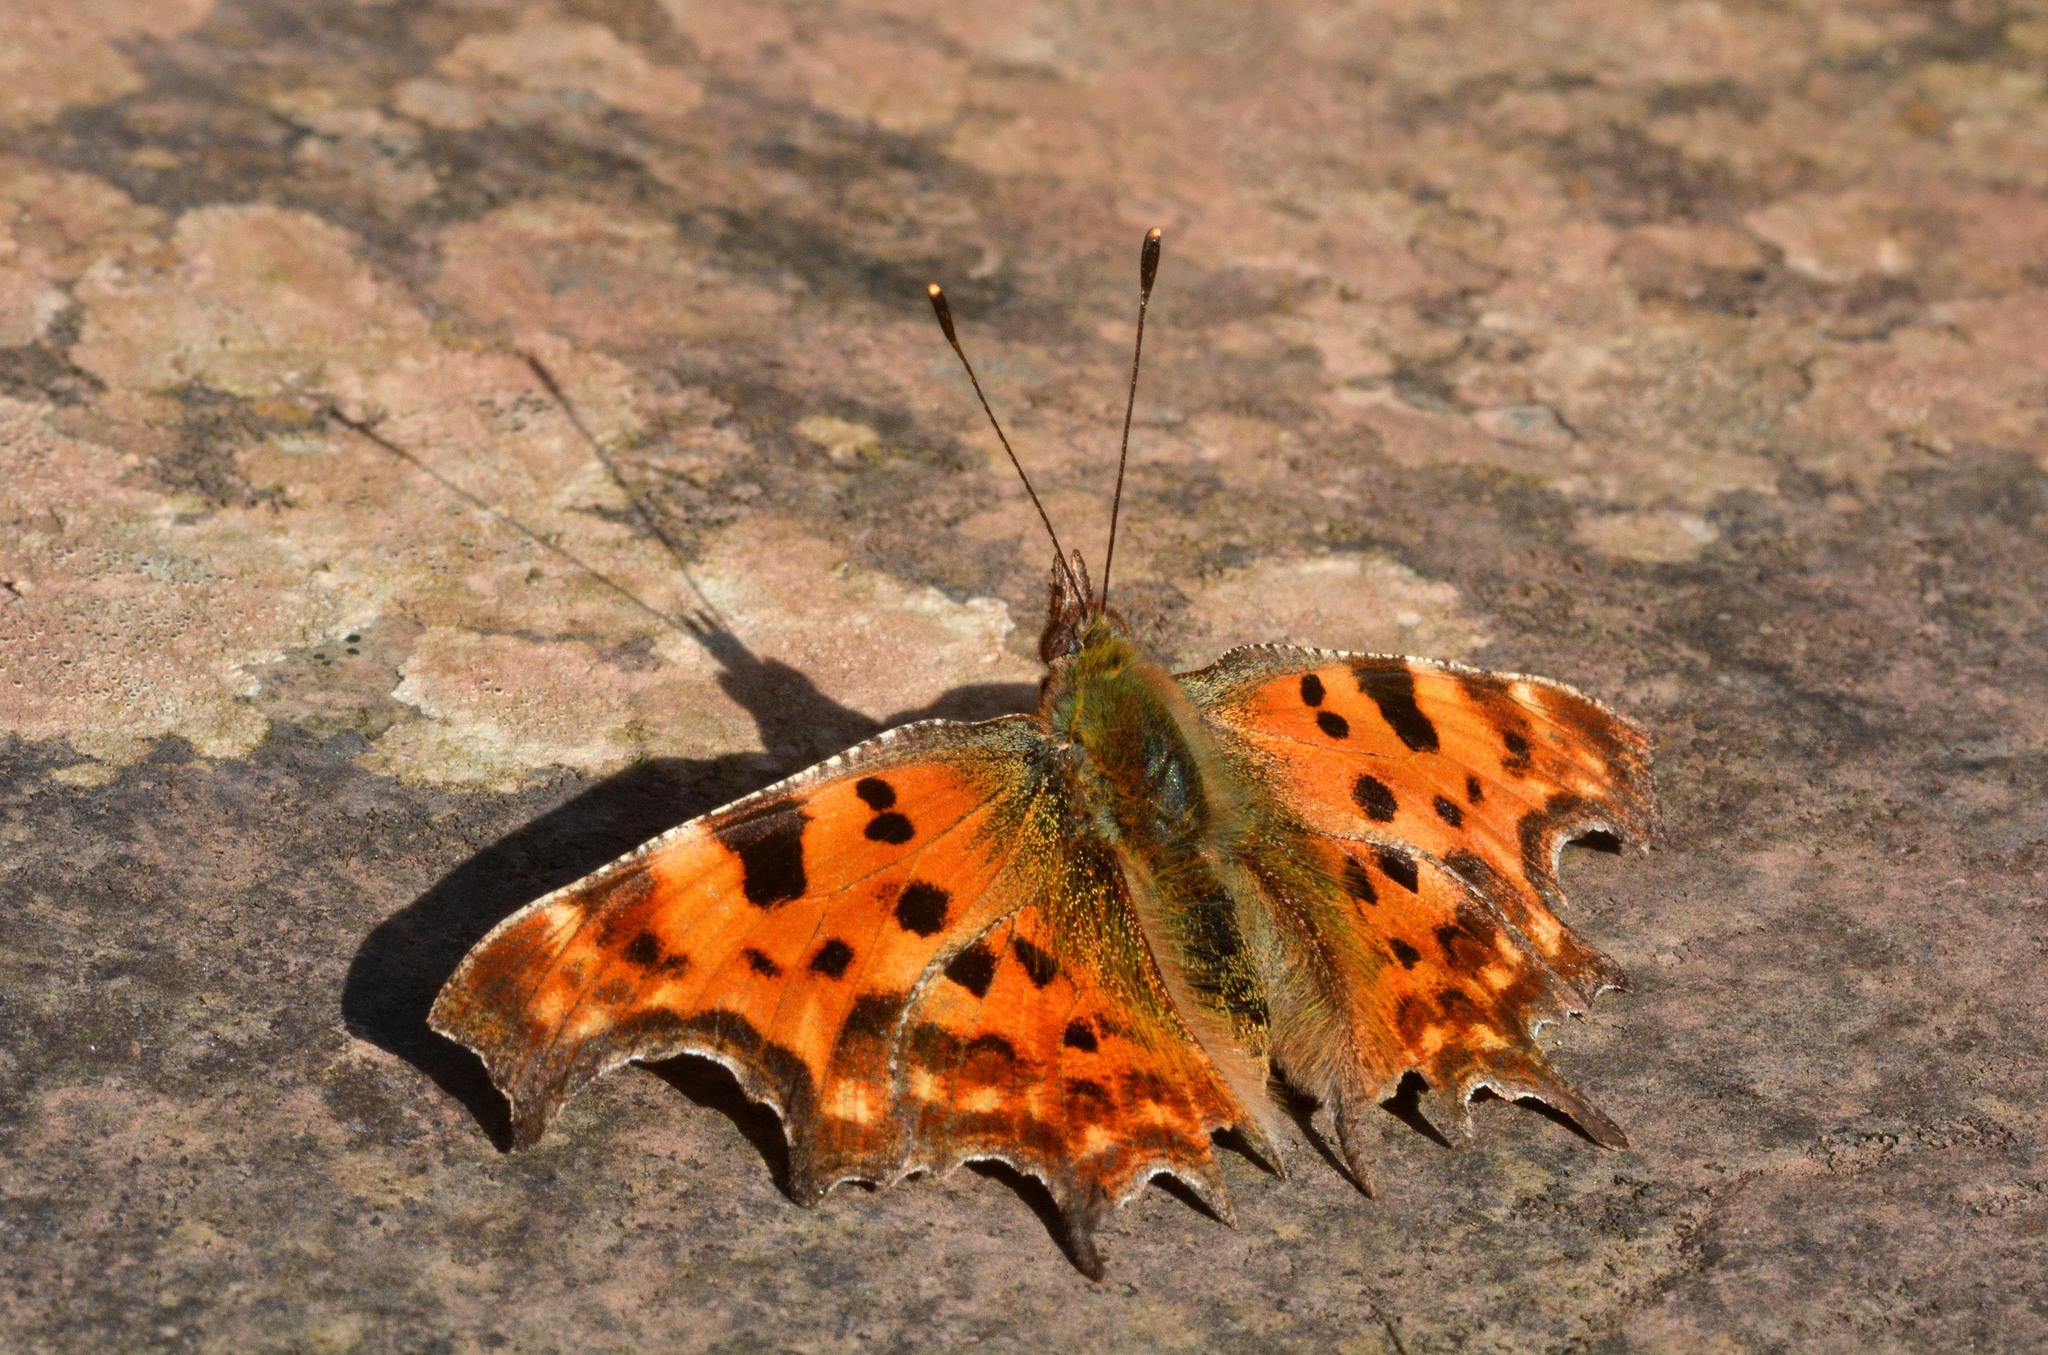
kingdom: Animalia
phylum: Arthropoda
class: Insecta
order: Lepidoptera
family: Nymphalidae
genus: Polygonia
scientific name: Polygonia c-album
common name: Comma
